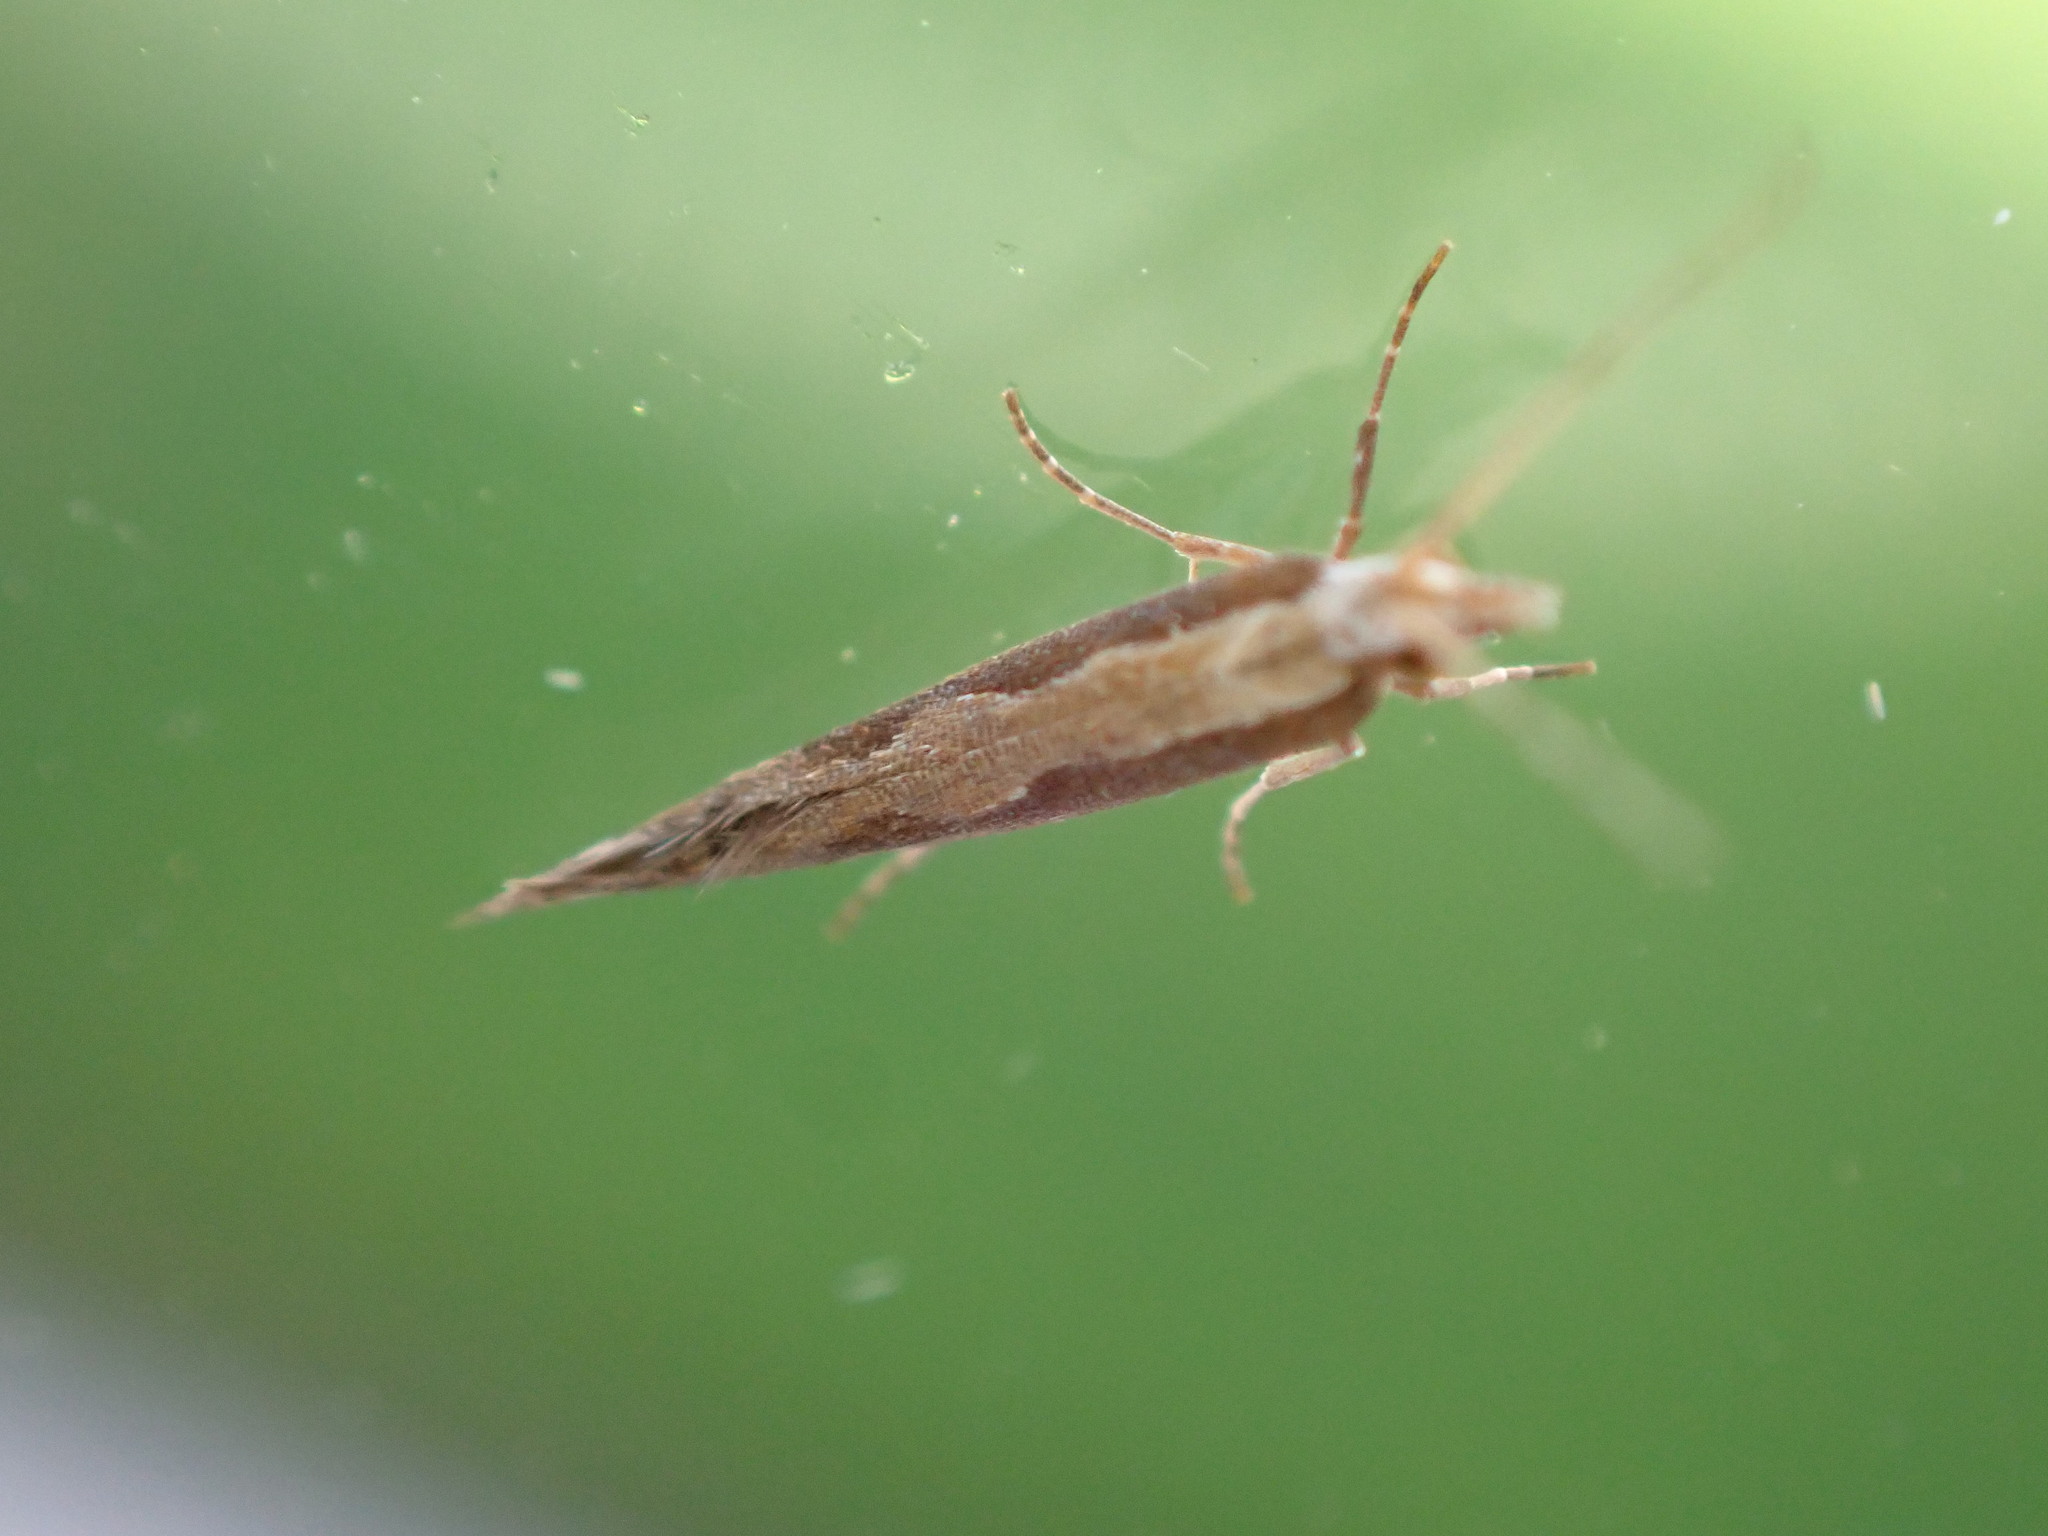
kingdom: Animalia
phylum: Arthropoda
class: Insecta
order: Lepidoptera
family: Plutellidae
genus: Plutella
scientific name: Plutella xylostella
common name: Diamond-back moth
